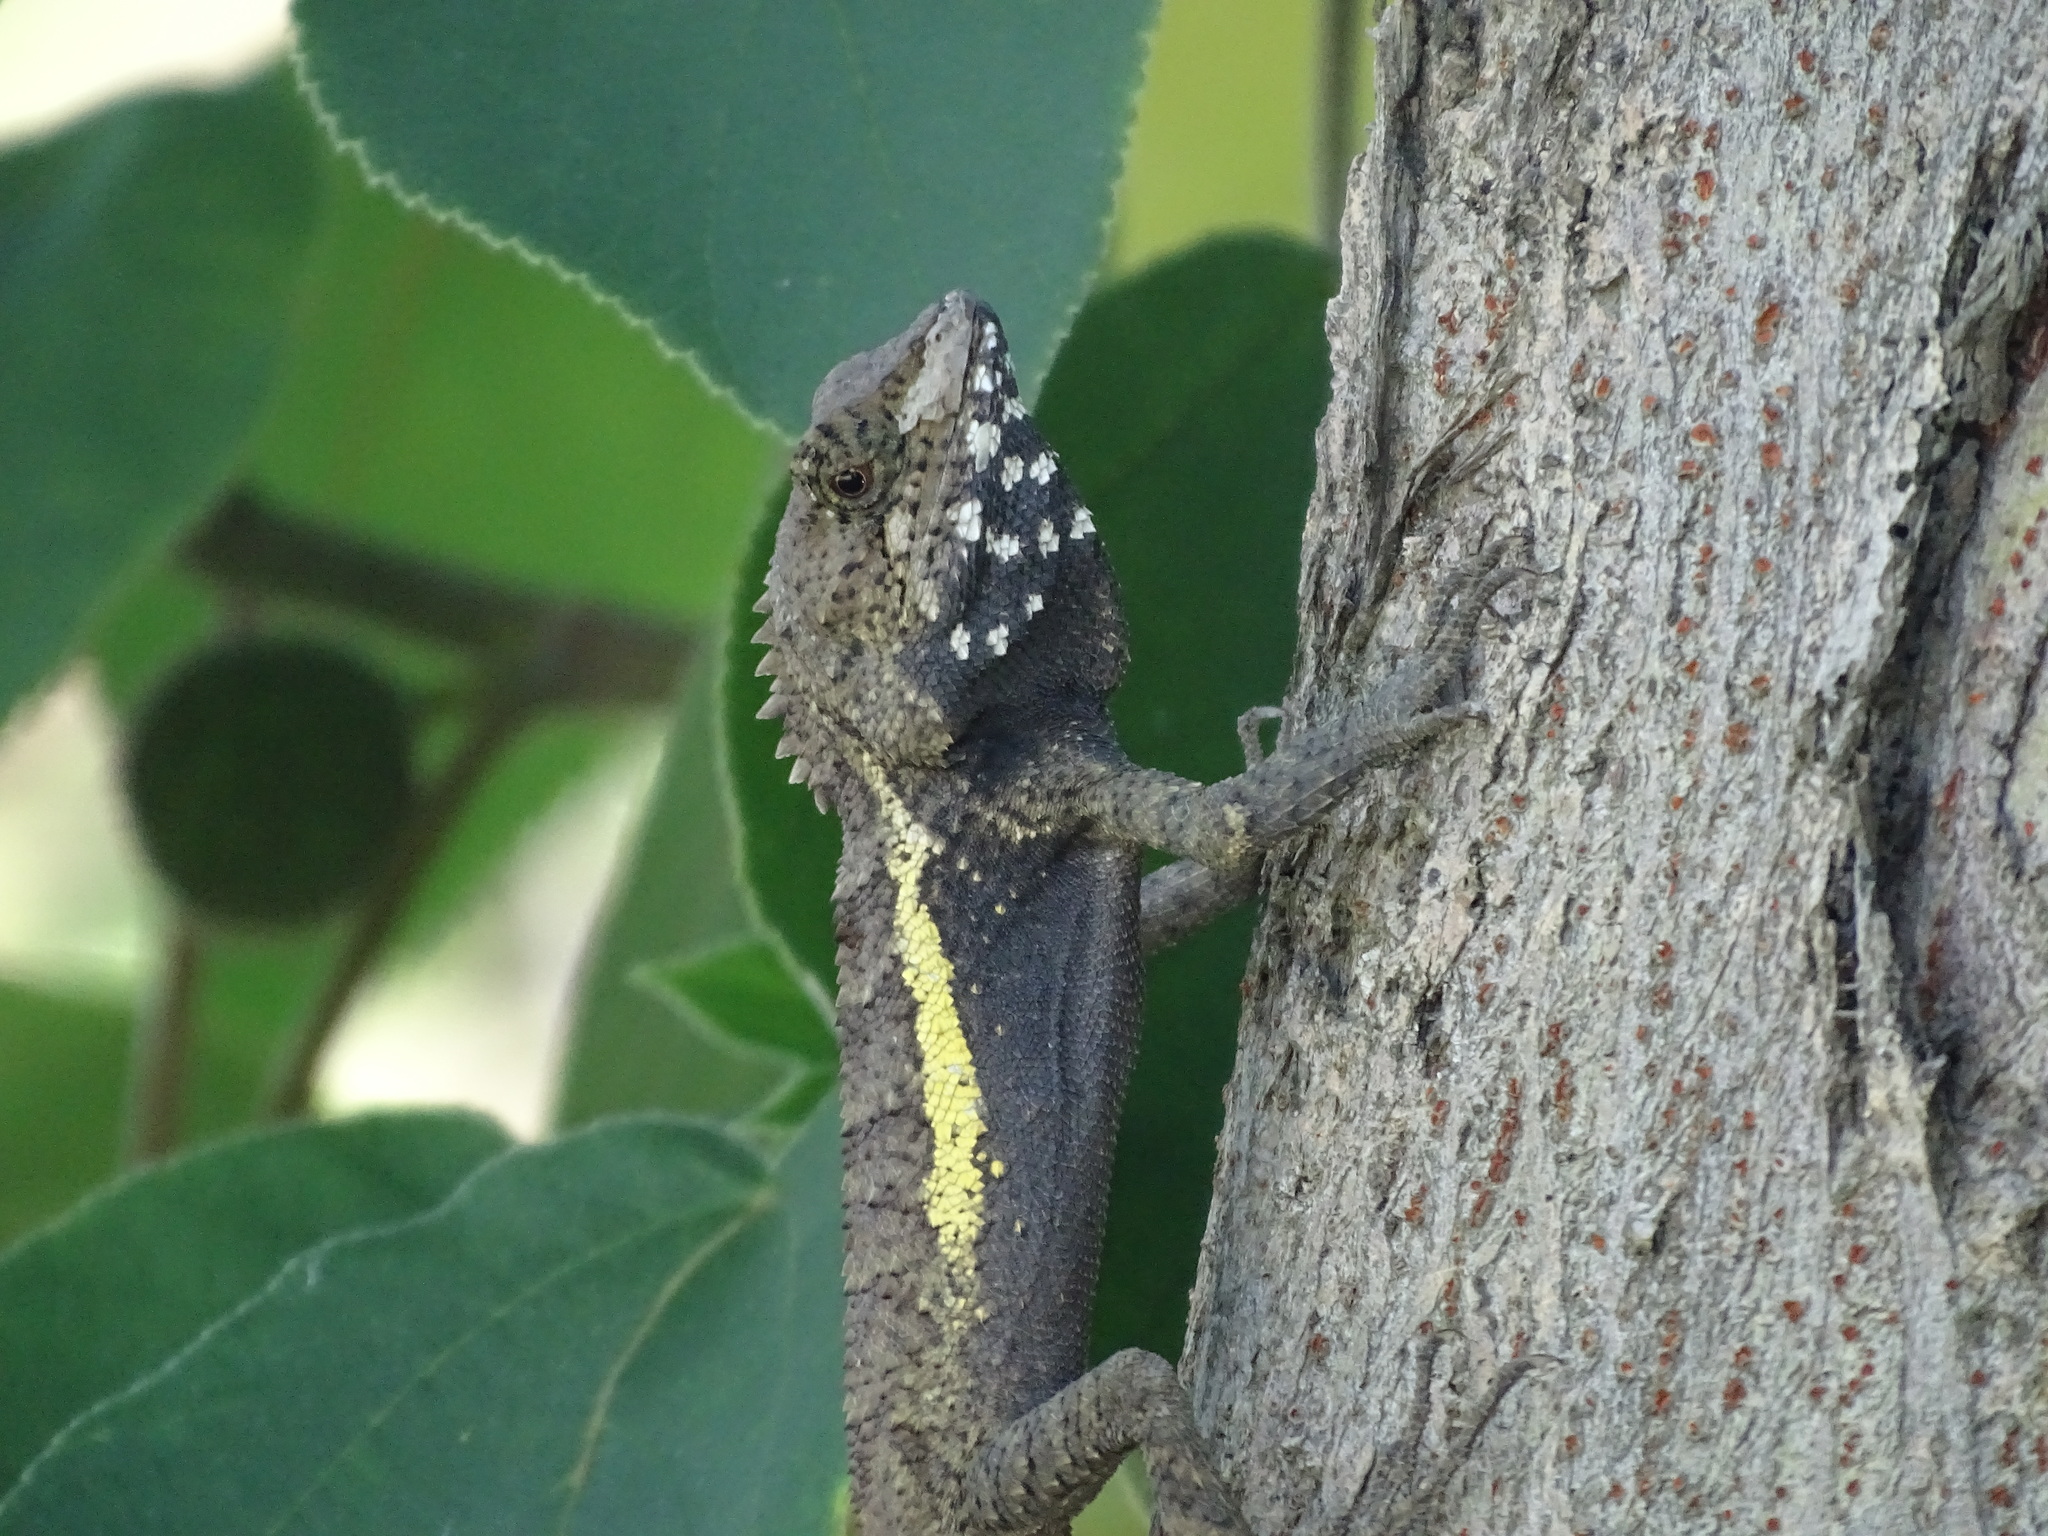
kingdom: Animalia
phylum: Chordata
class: Squamata
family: Agamidae
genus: Diploderma
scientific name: Diploderma swinhonis
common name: Taiwan japalure
